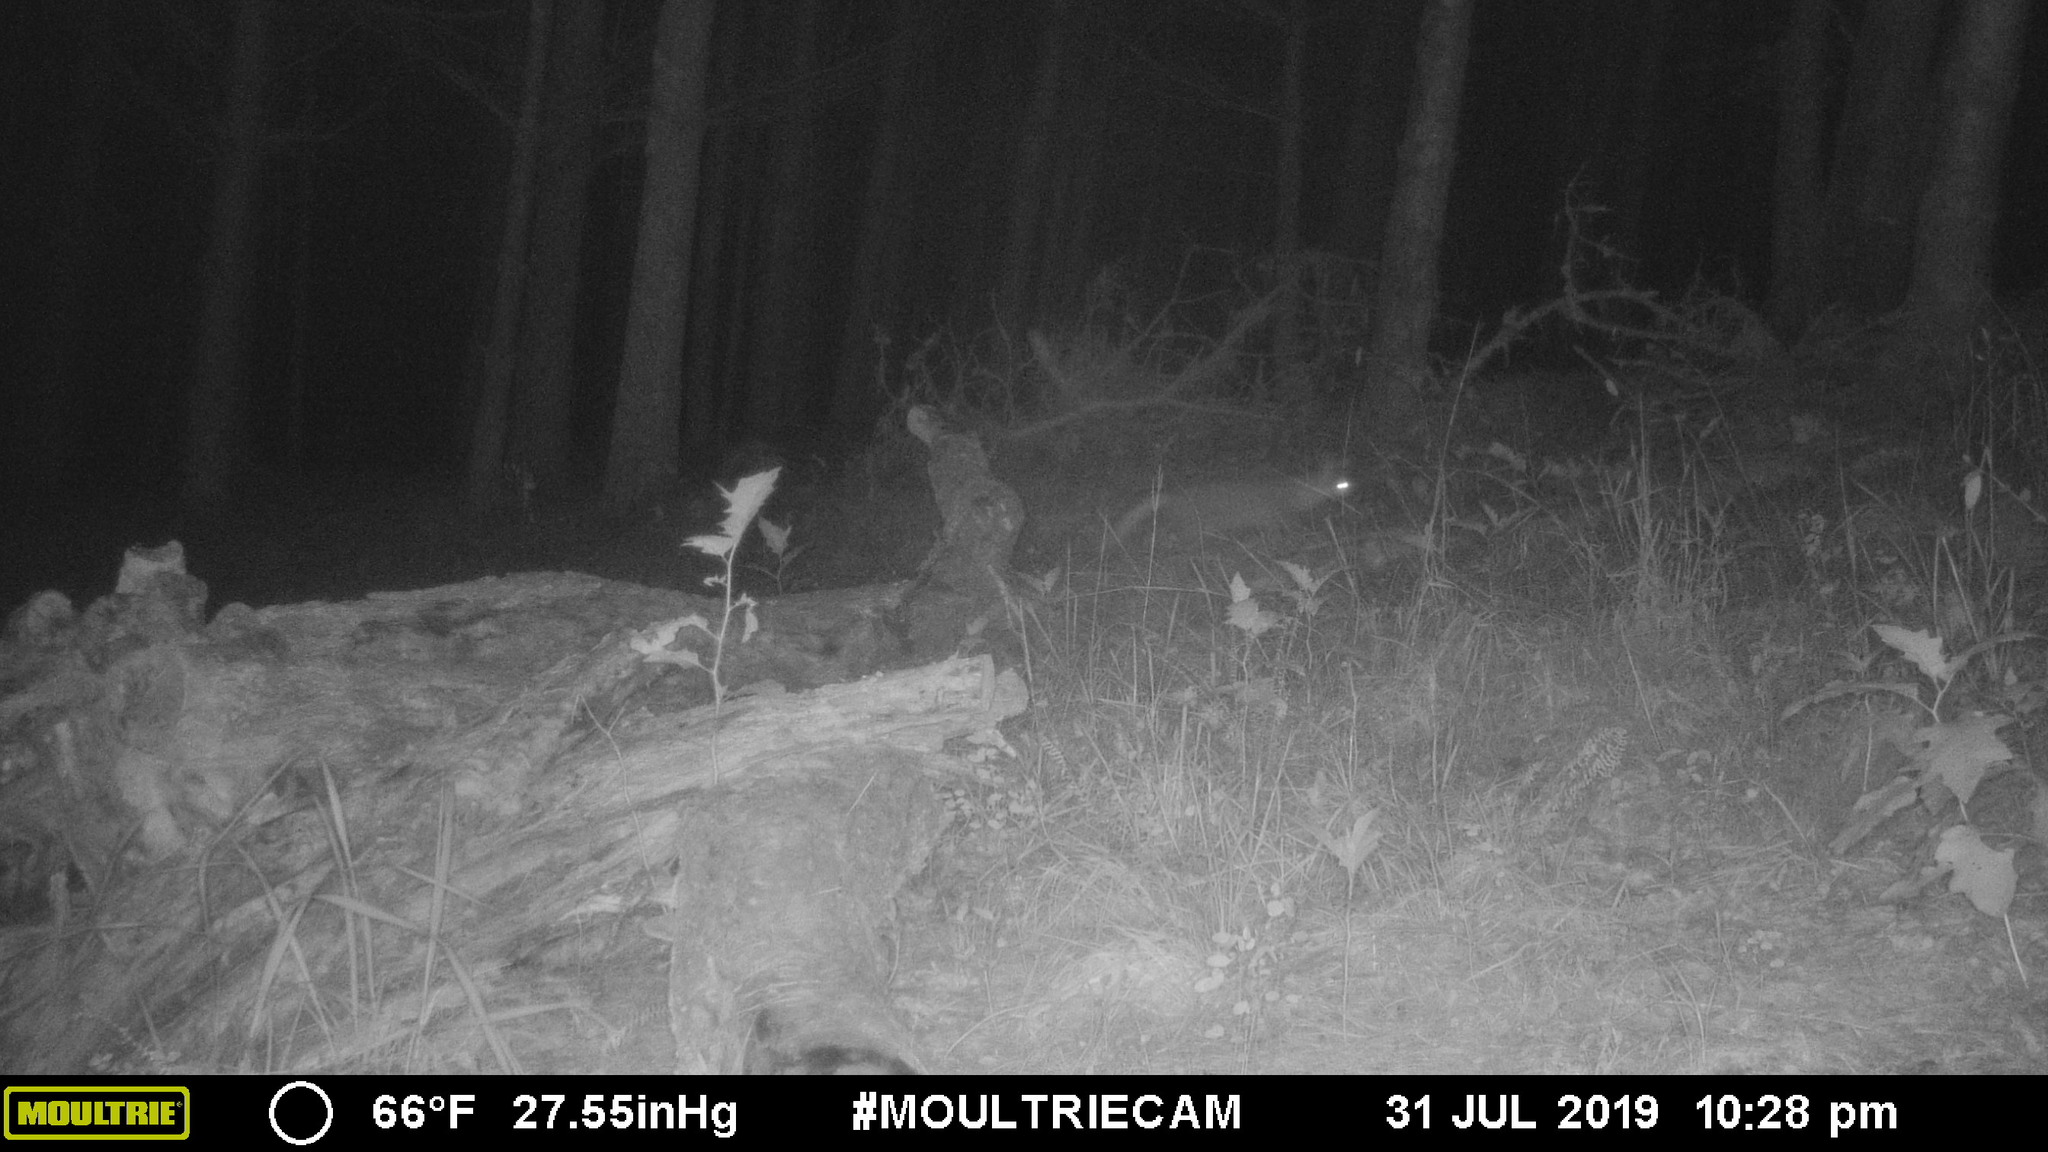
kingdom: Animalia
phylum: Chordata
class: Mammalia
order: Carnivora
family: Canidae
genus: Urocyon
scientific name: Urocyon cinereoargenteus
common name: Gray fox
